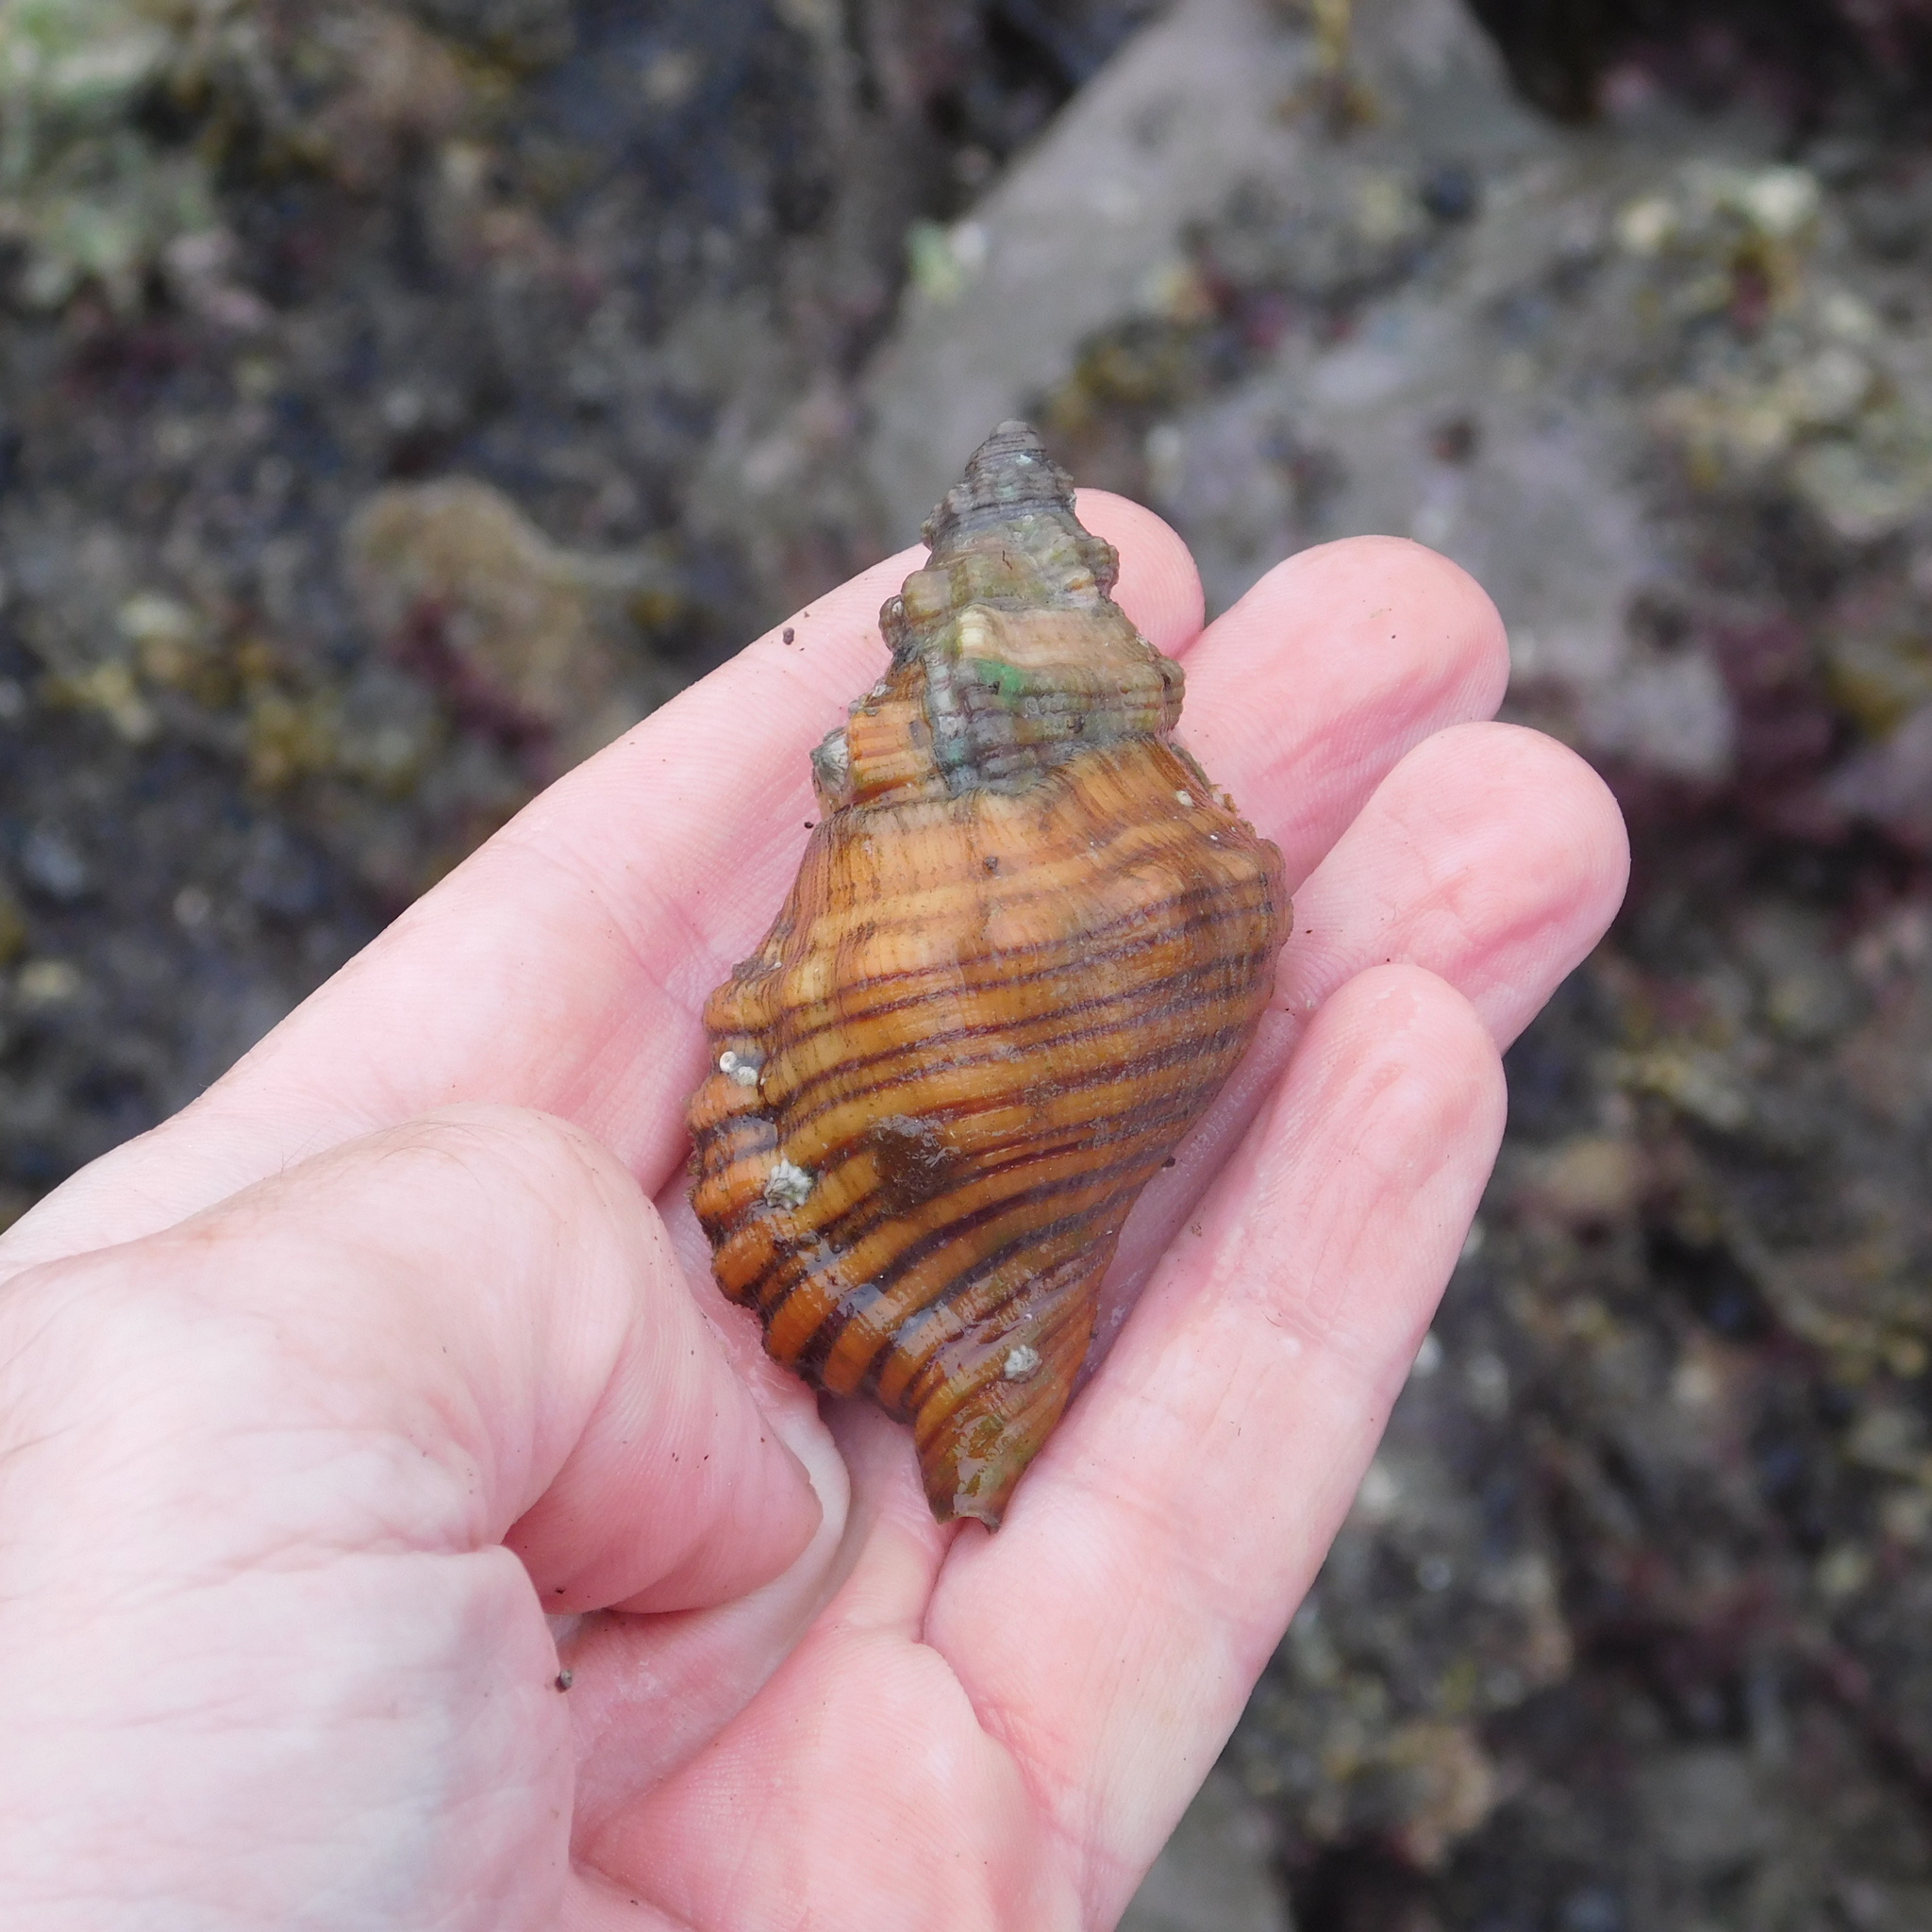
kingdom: Animalia
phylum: Mollusca
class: Gastropoda
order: Littorinimorpha
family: Cymatiidae
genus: Cabestana
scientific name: Cabestana spengleri
